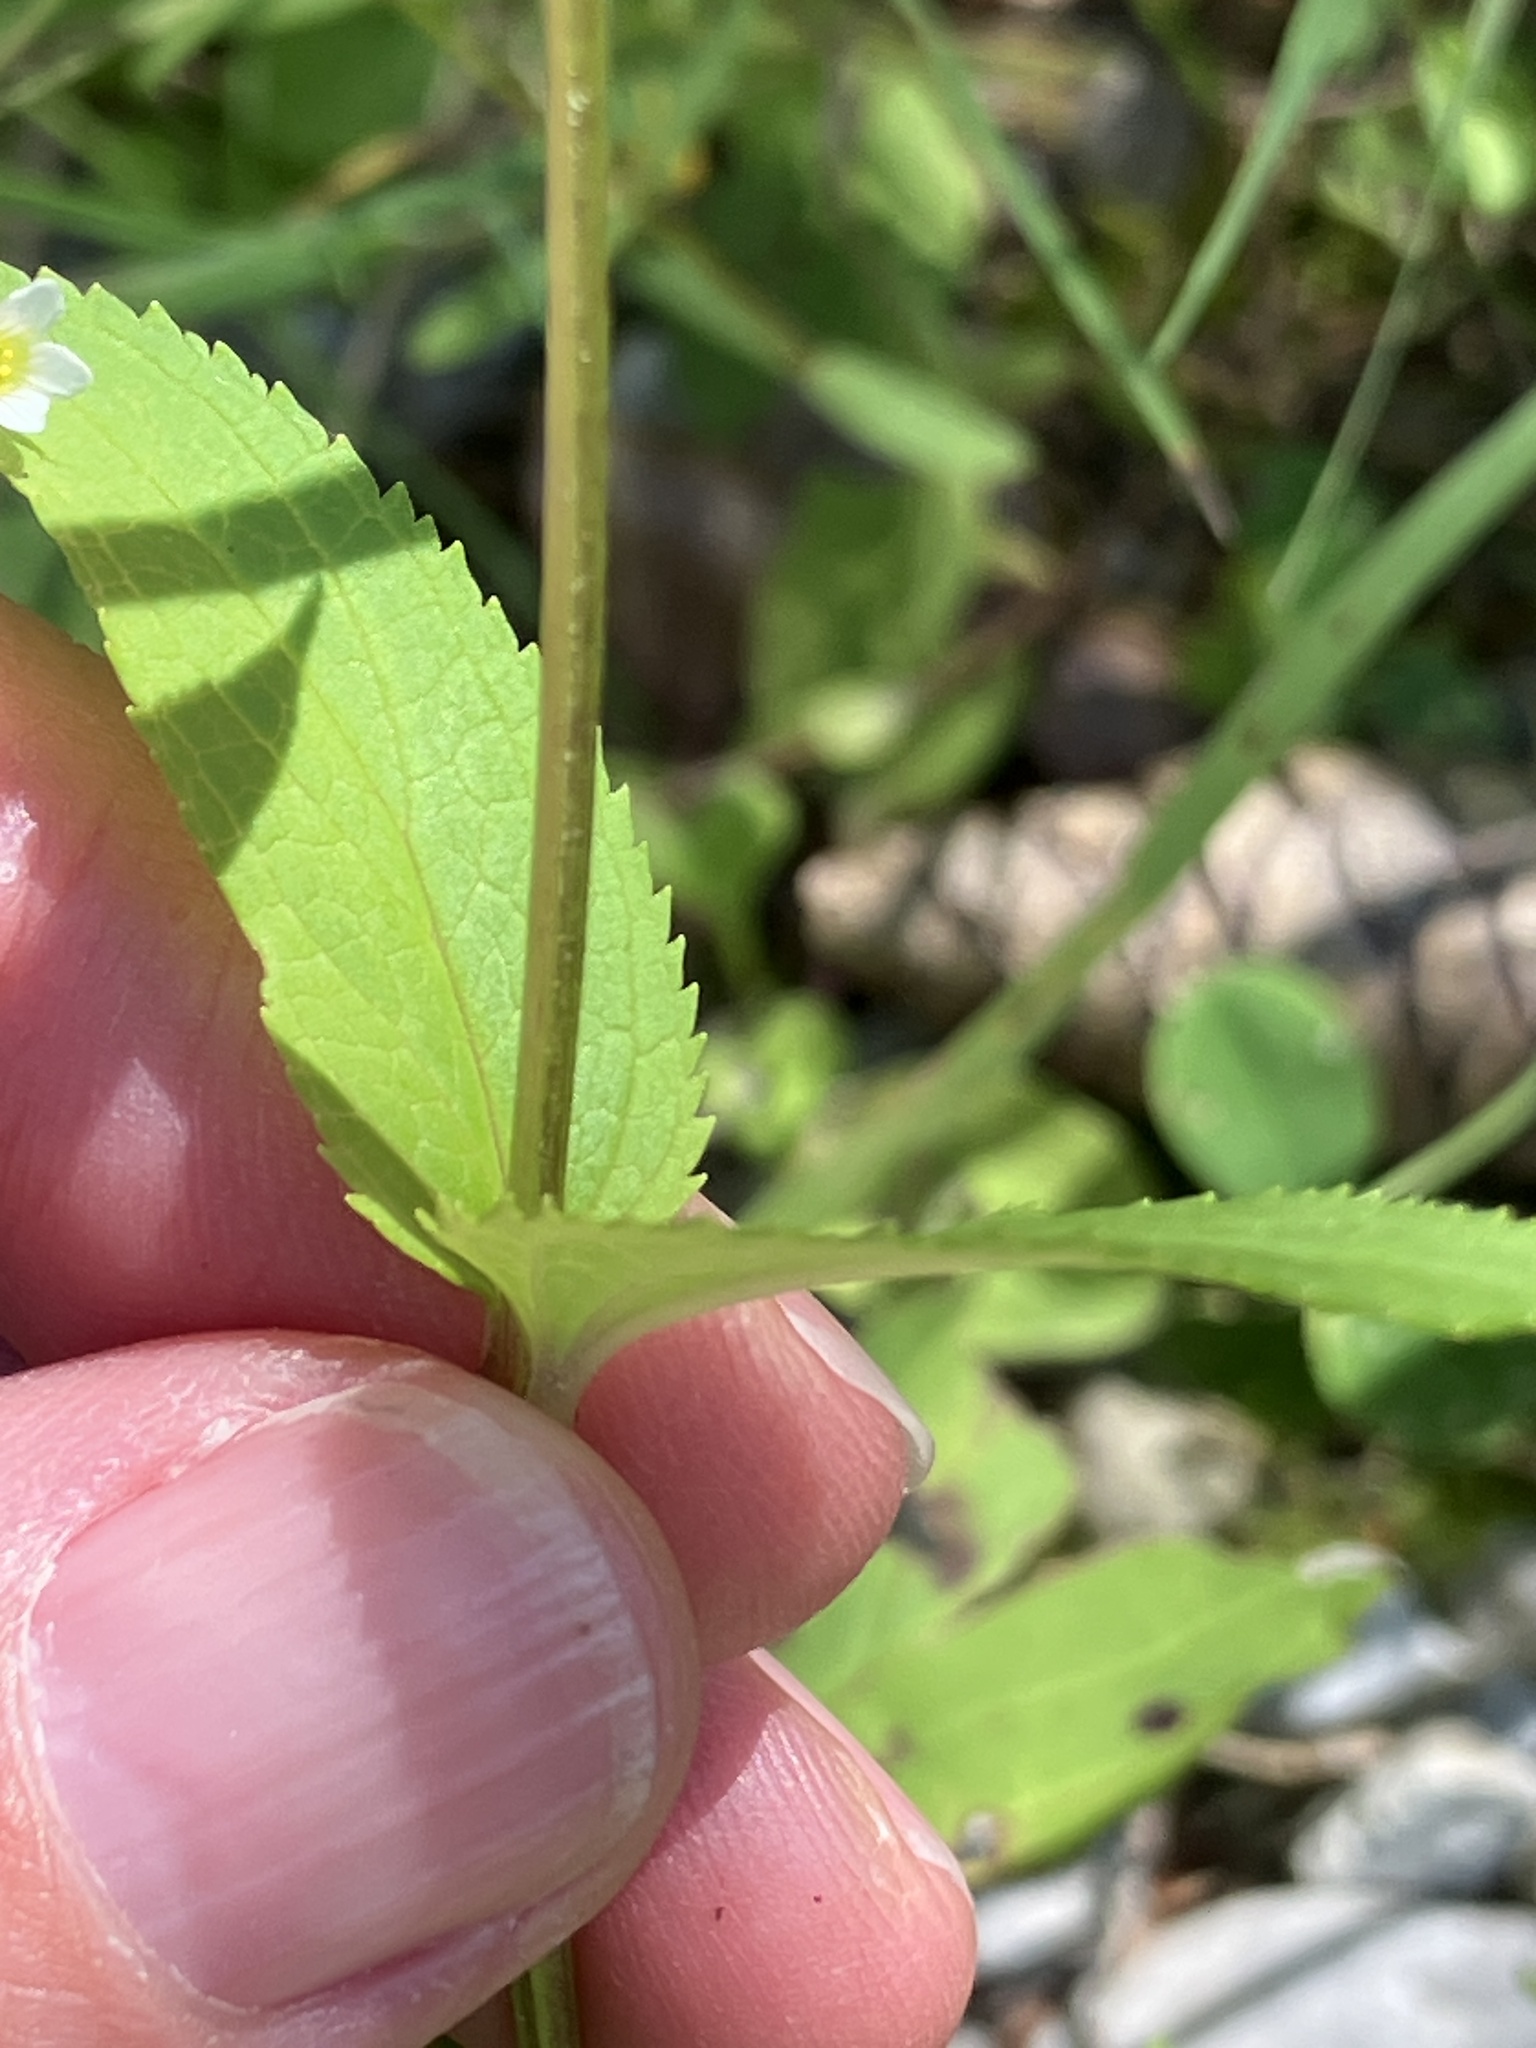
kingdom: Plantae
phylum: Tracheophyta
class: Magnoliopsida
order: Lamiales
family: Scrophulariaceae
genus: Scrophularia
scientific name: Scrophularia nodosa
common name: Common figwort
